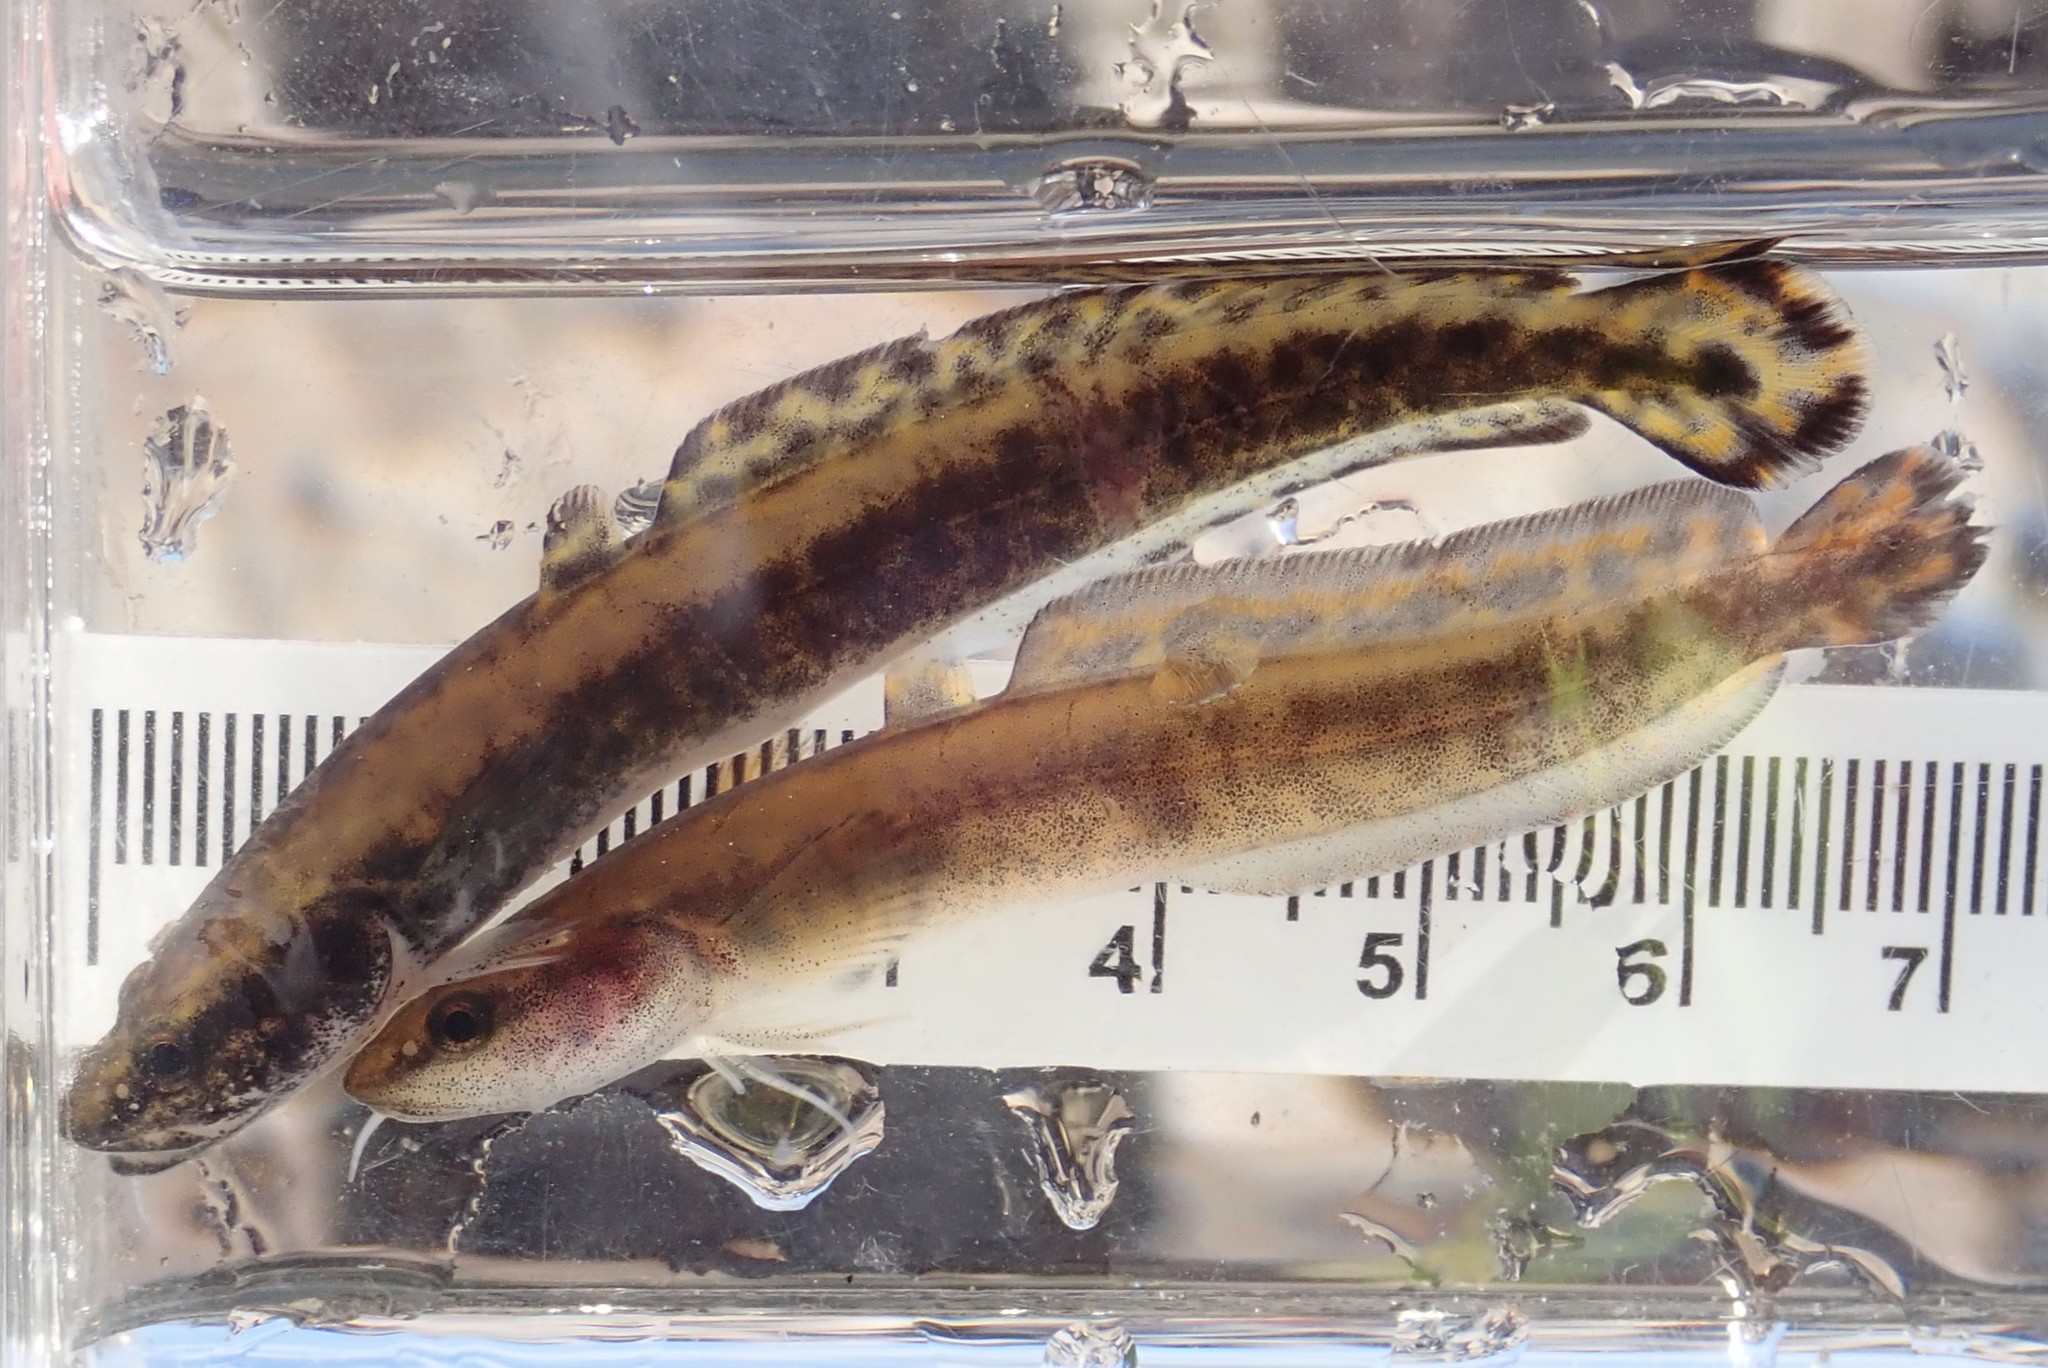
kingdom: Animalia
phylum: Chordata
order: Gadiformes
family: Lotidae
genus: Lota
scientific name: Lota lota
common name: Burbot
